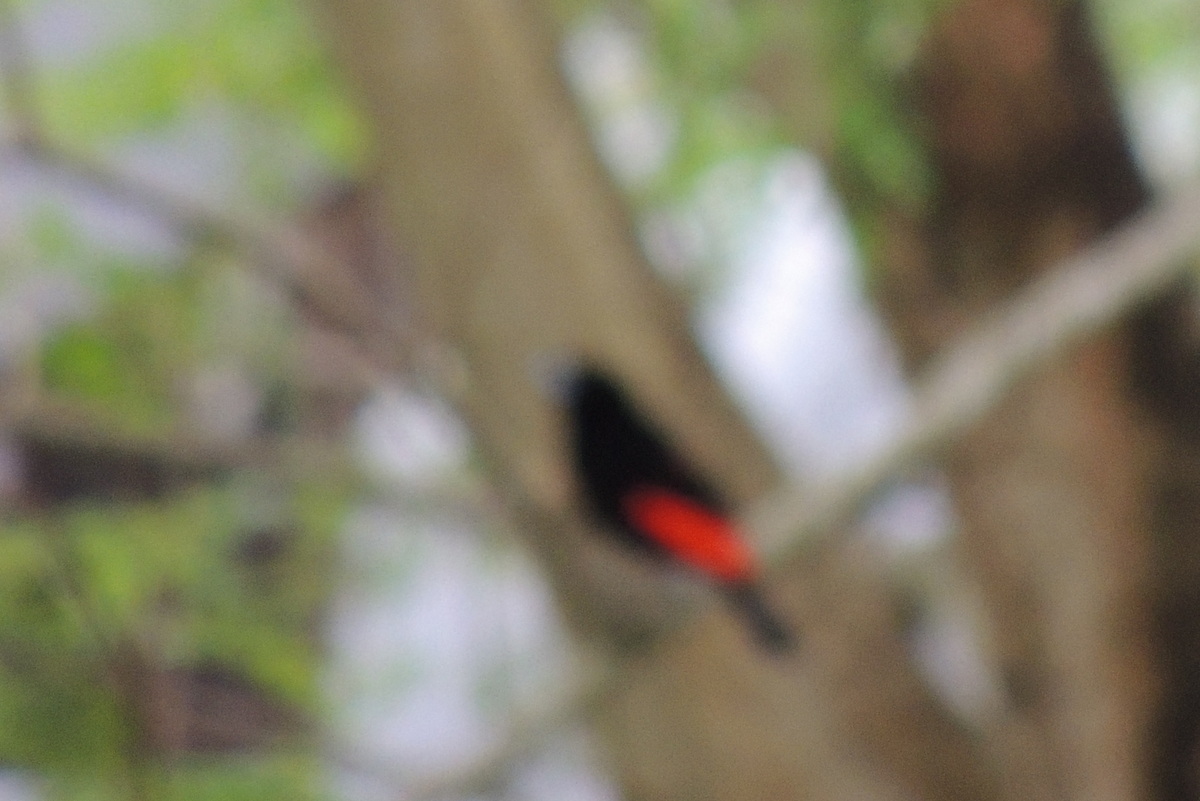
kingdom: Animalia
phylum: Chordata
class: Aves
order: Passeriformes
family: Thraupidae
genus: Ramphocelus
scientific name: Ramphocelus passerinii
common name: Passerini's tanager
